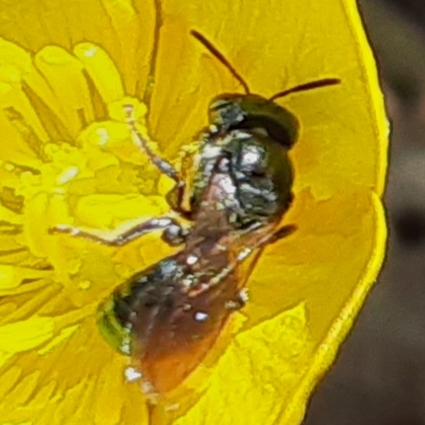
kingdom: Animalia
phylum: Arthropoda
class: Insecta
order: Hymenoptera
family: Apidae
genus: Zadontomerus
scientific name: Zadontomerus
